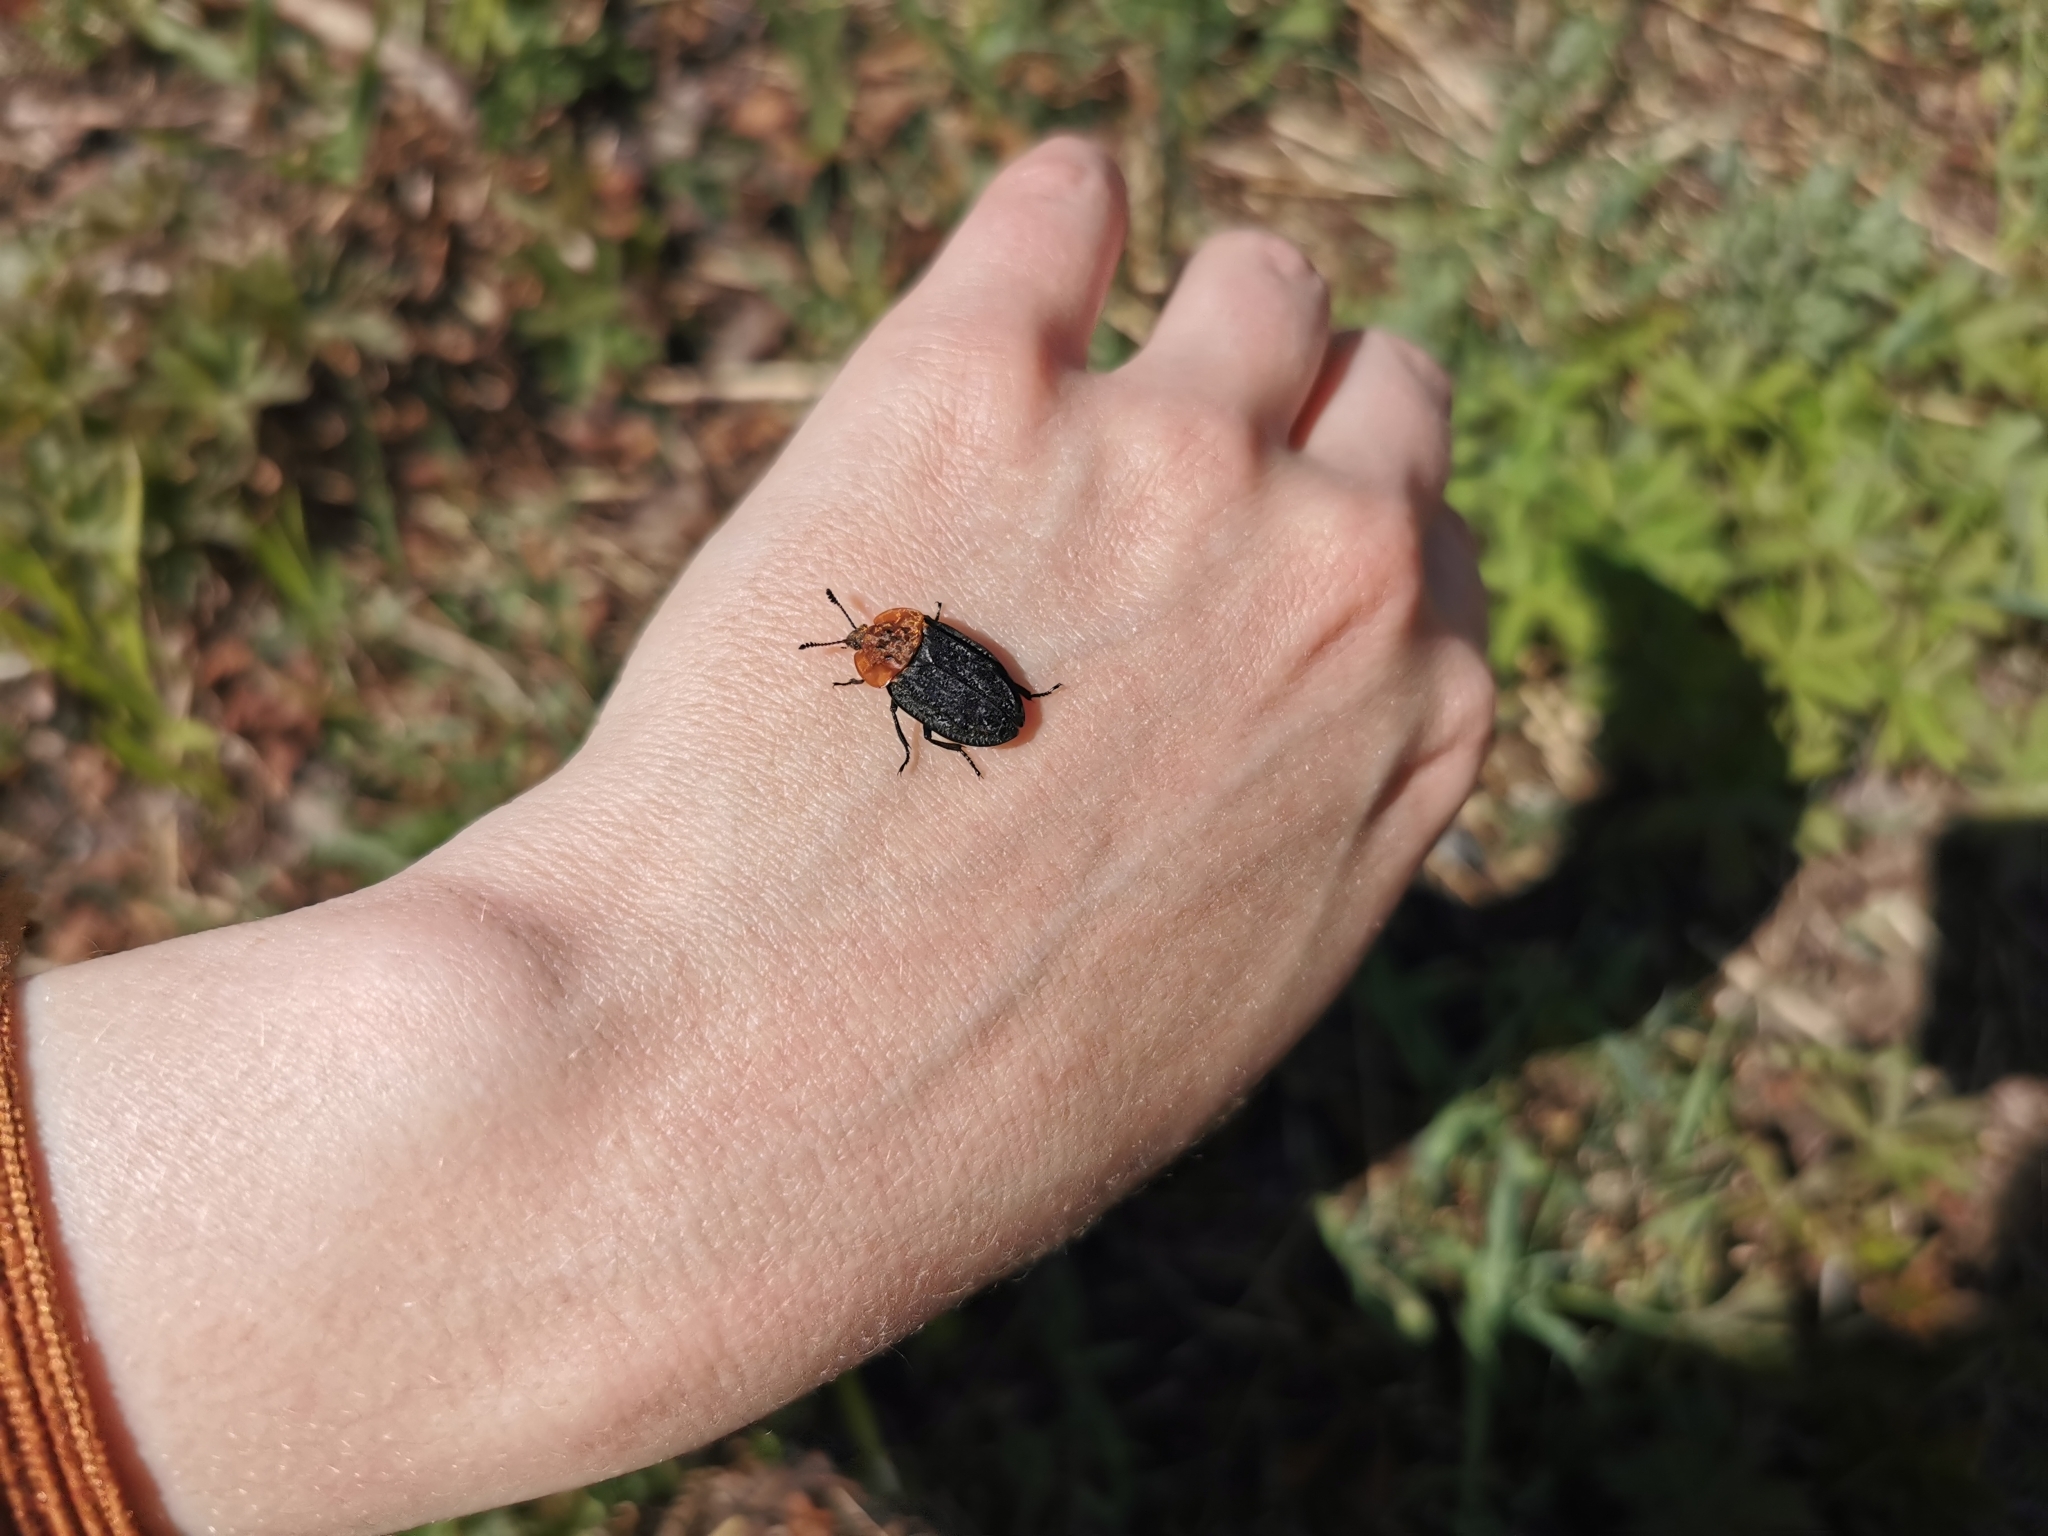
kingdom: Animalia
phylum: Arthropoda
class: Insecta
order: Coleoptera
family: Staphylinidae
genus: Oiceoptoma
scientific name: Oiceoptoma thoracicum
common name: Red-breasted carrion beetle
